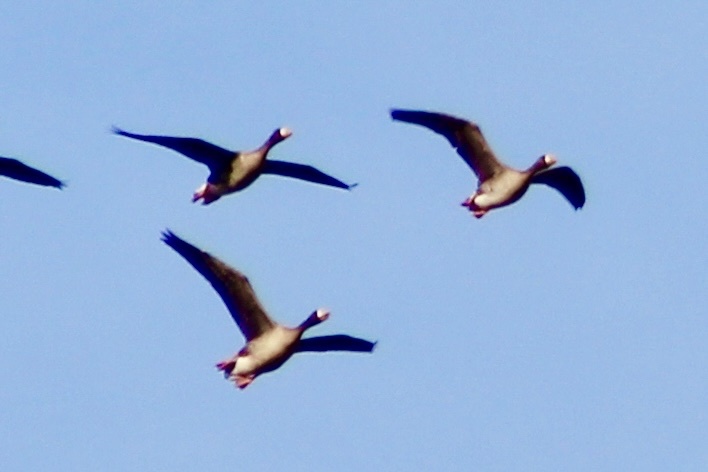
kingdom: Animalia
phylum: Chordata
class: Aves
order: Anseriformes
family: Anatidae
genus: Anser
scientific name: Anser albifrons
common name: Greater white-fronted goose
